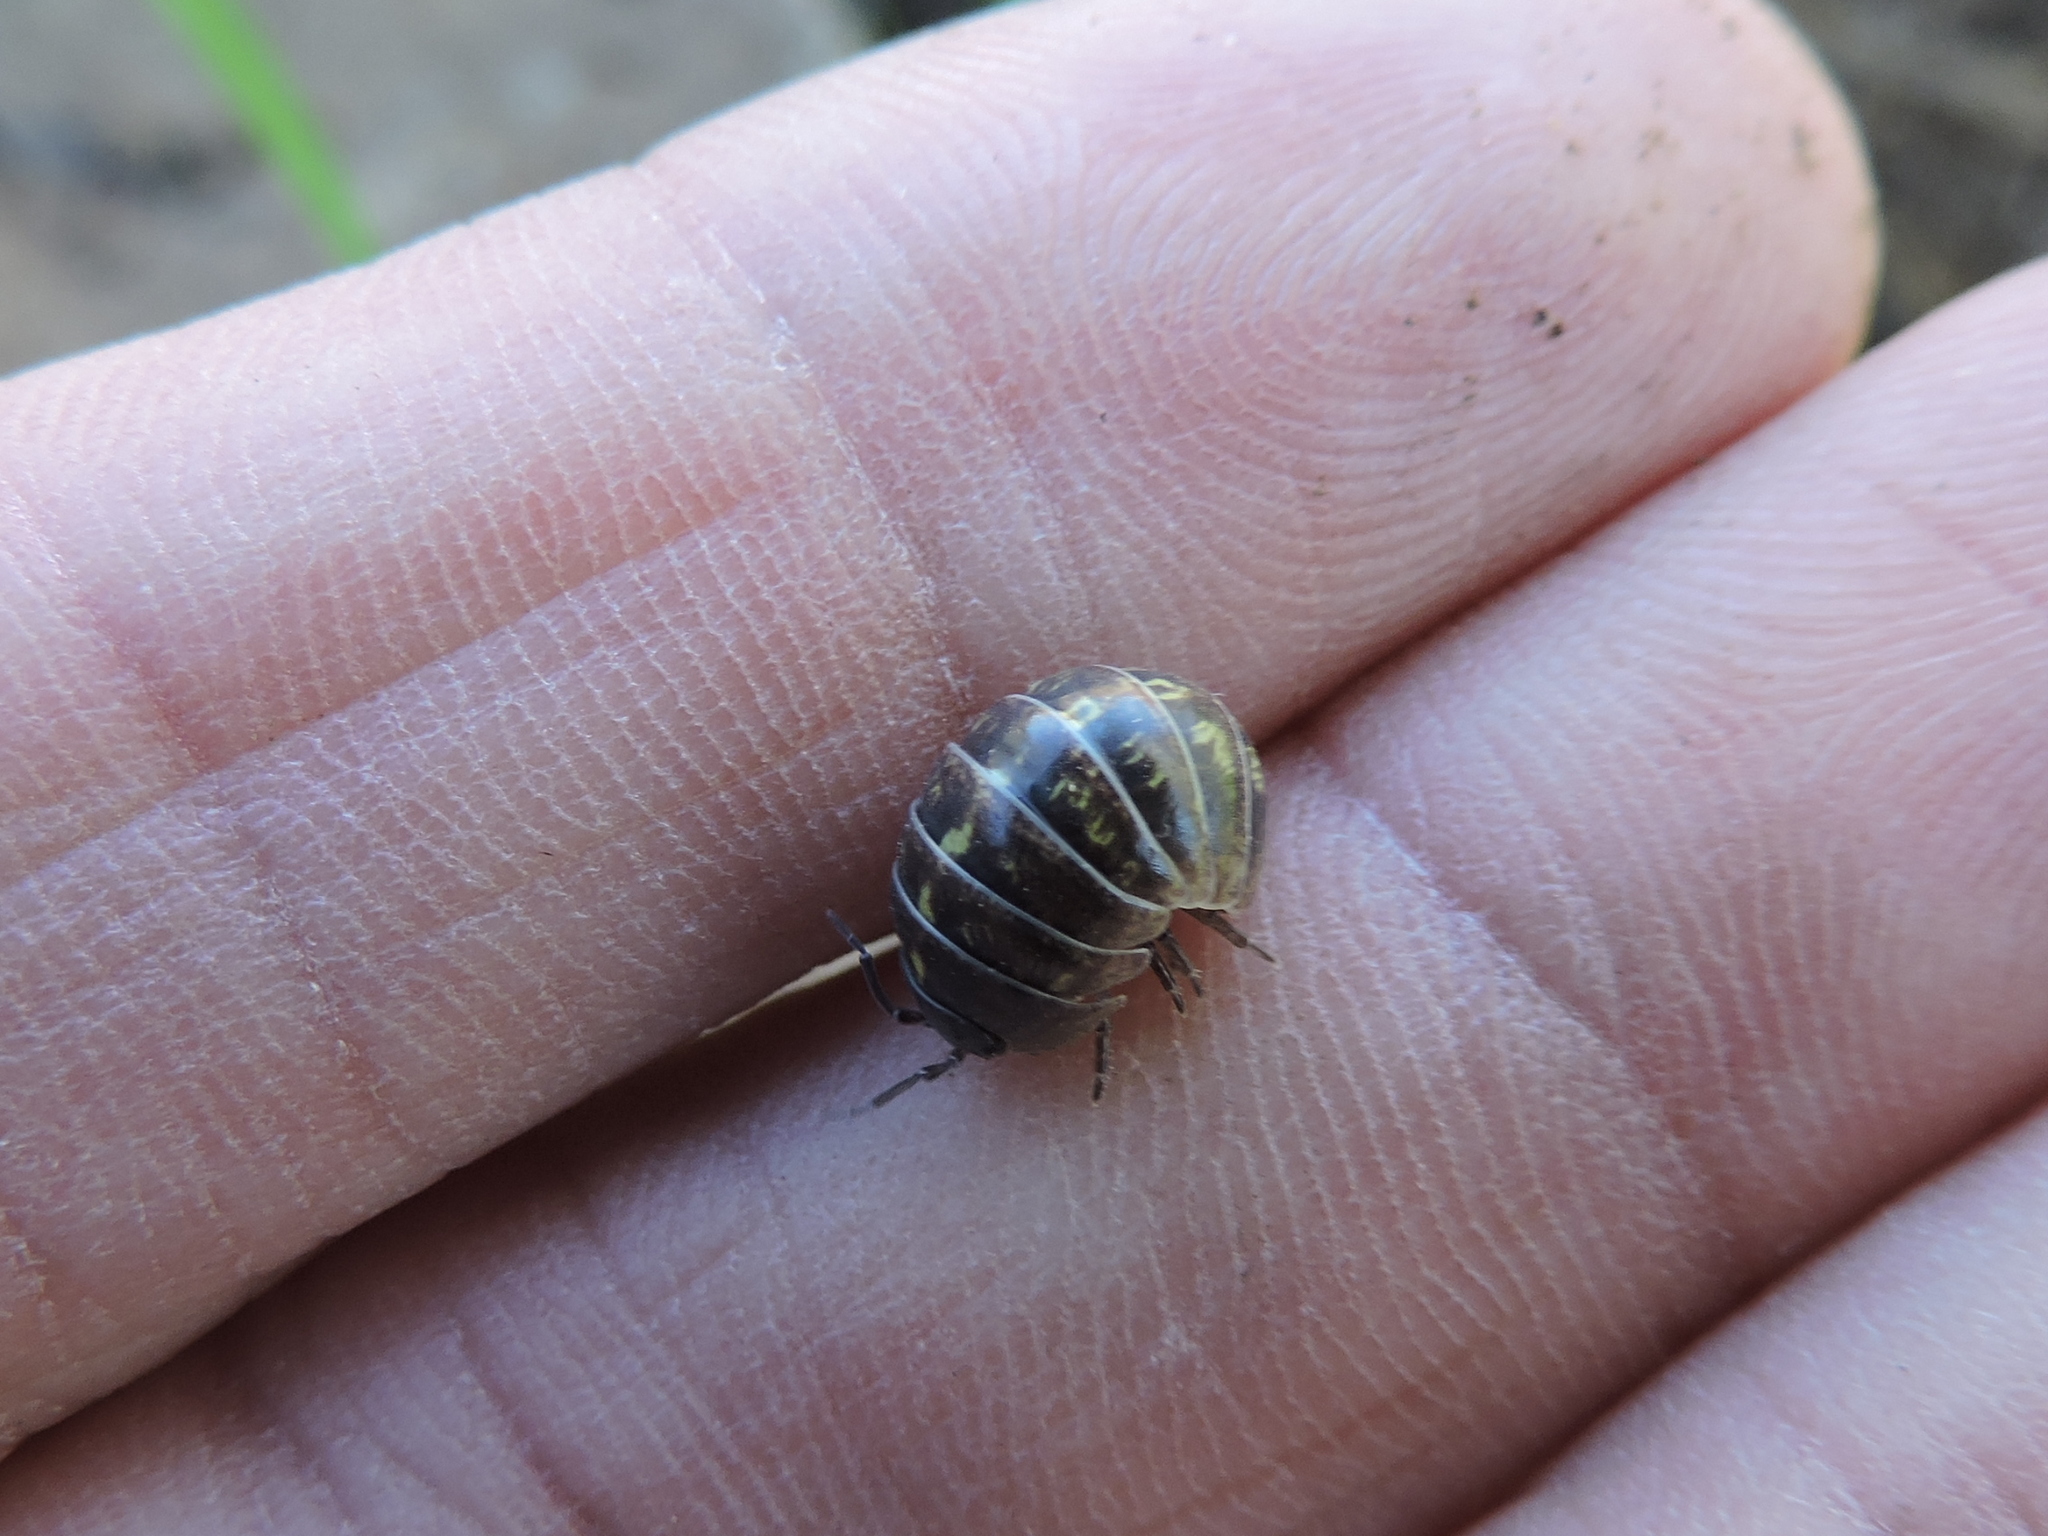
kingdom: Animalia
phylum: Arthropoda
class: Malacostraca
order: Isopoda
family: Armadillidiidae
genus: Armadillidium
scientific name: Armadillidium vulgare
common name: Common pill woodlouse
